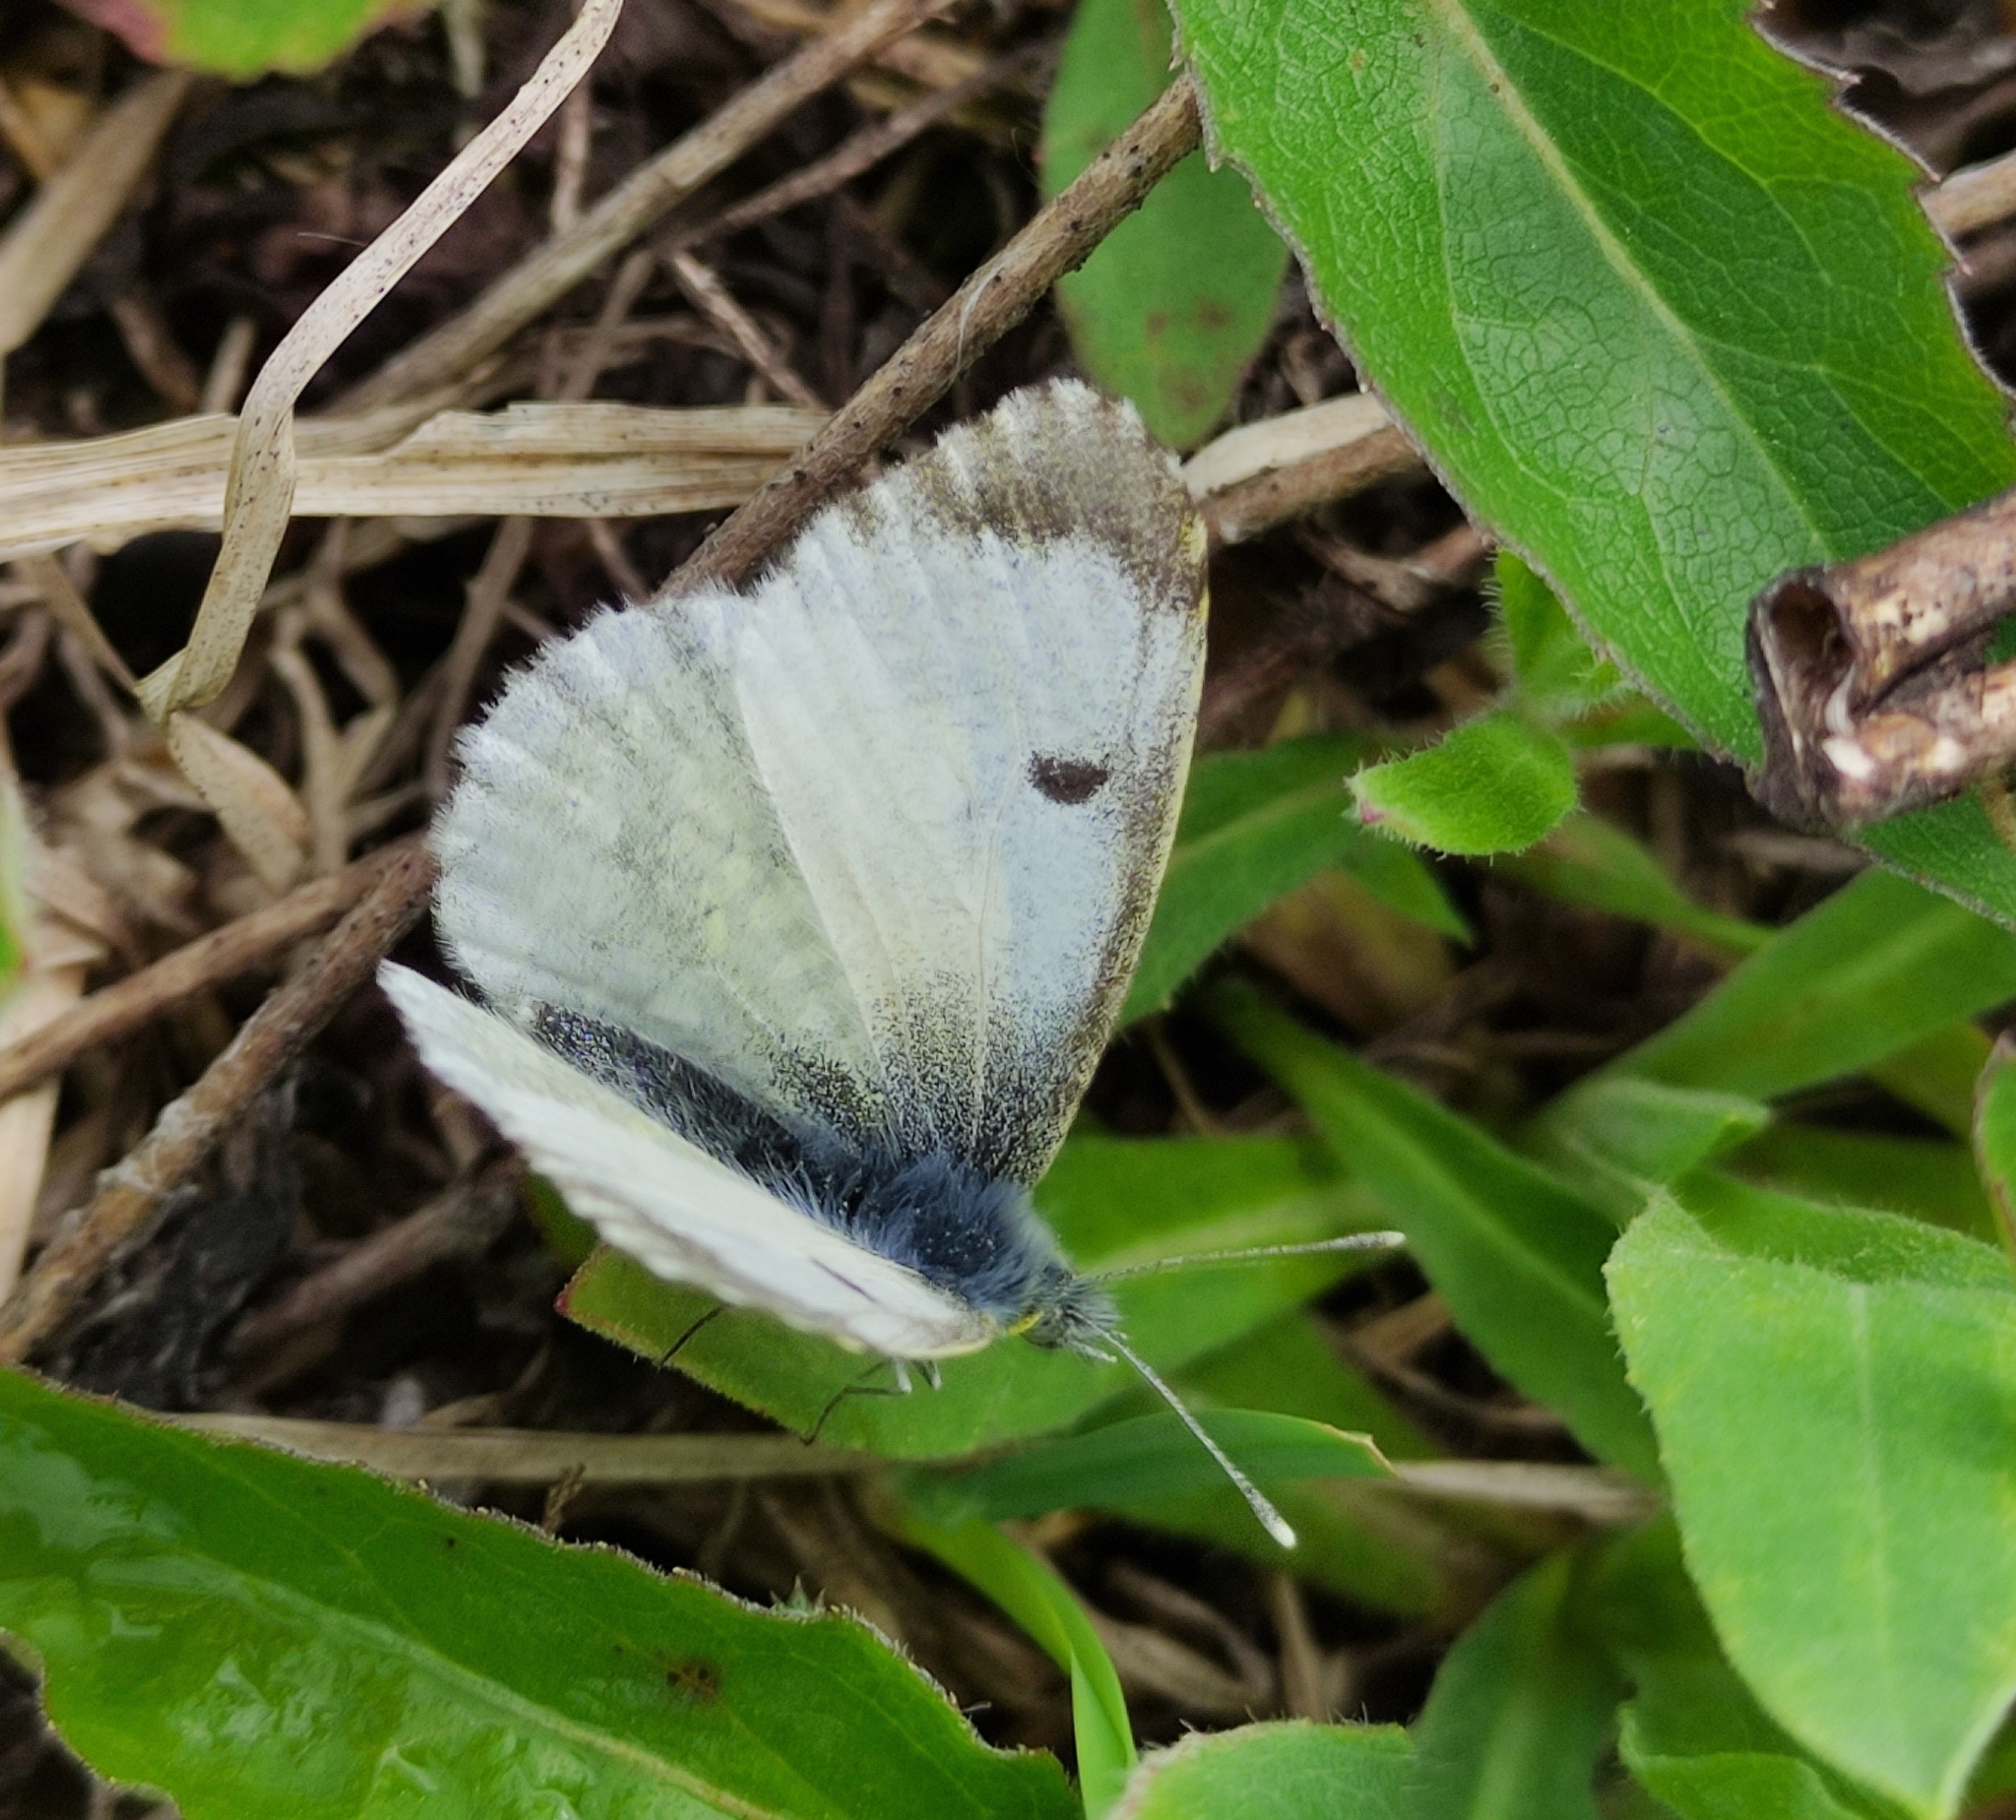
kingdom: Animalia
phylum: Arthropoda
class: Insecta
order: Lepidoptera
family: Pieridae
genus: Anthocharis
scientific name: Anthocharis cardamines
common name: Orange-tip
